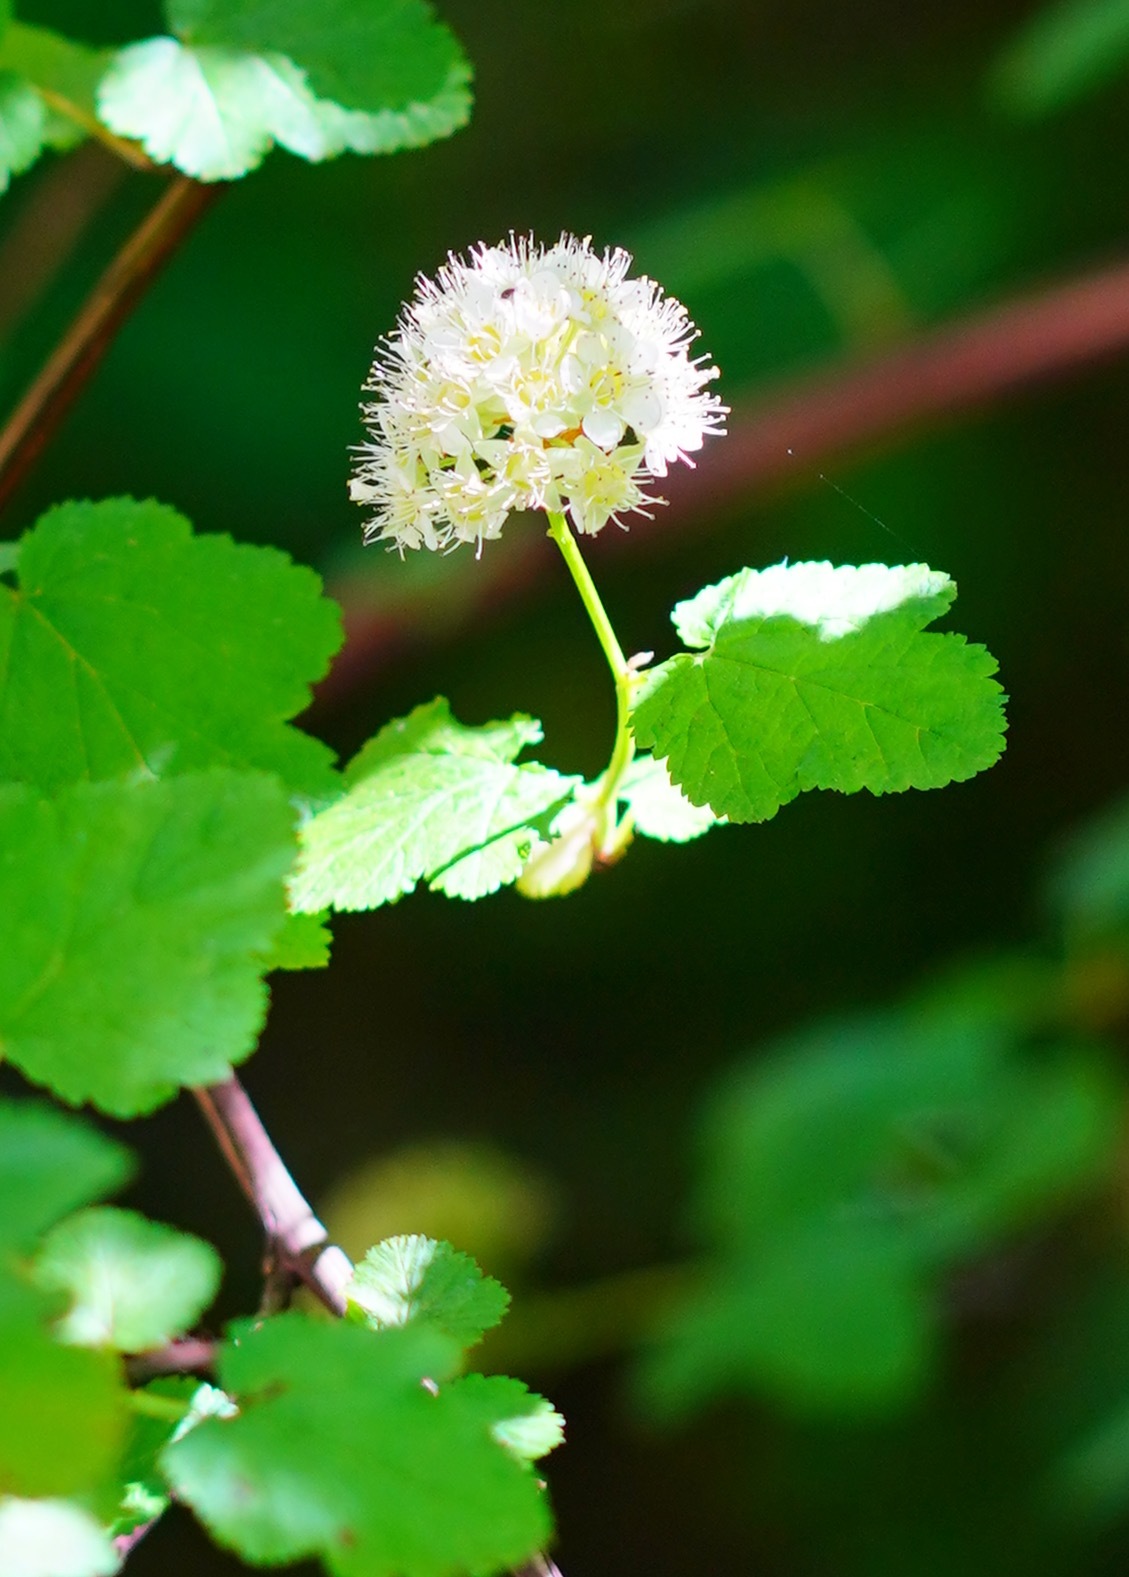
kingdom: Plantae
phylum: Tracheophyta
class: Magnoliopsida
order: Rosales
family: Rosaceae
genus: Physocarpus
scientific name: Physocarpus capitatus
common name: Pacific ninebark
